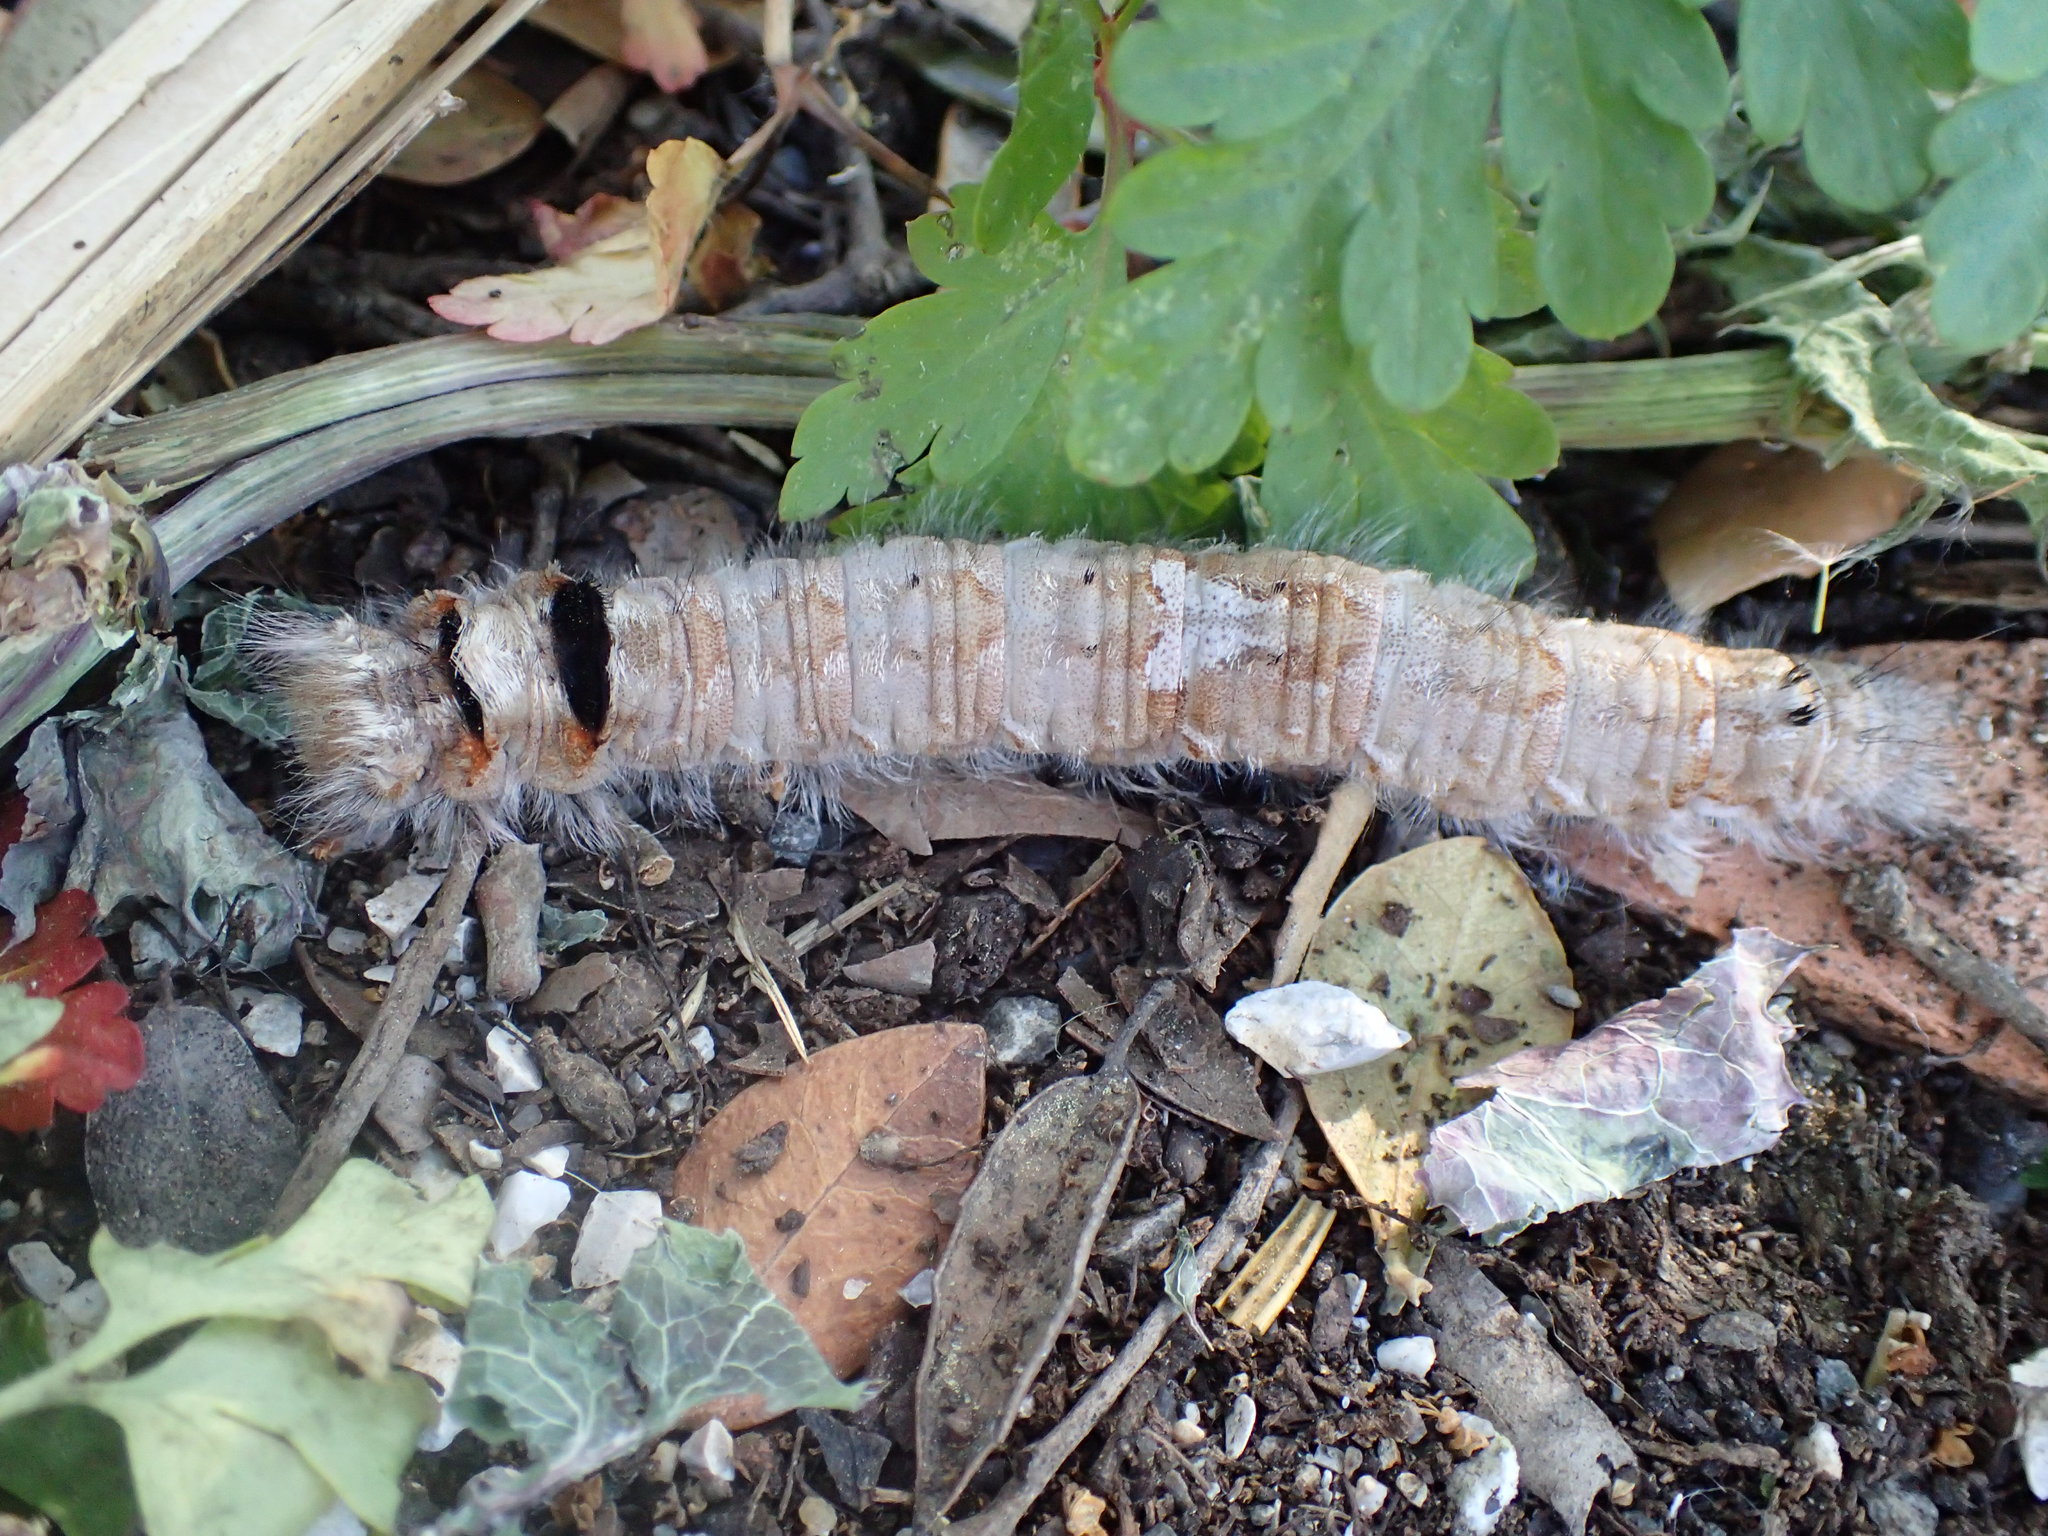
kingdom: Animalia
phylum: Arthropoda
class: Insecta
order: Lepidoptera
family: Lasiocampidae
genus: Dendrolimus
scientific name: Dendrolimus pini
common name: Pine-tree lappet
